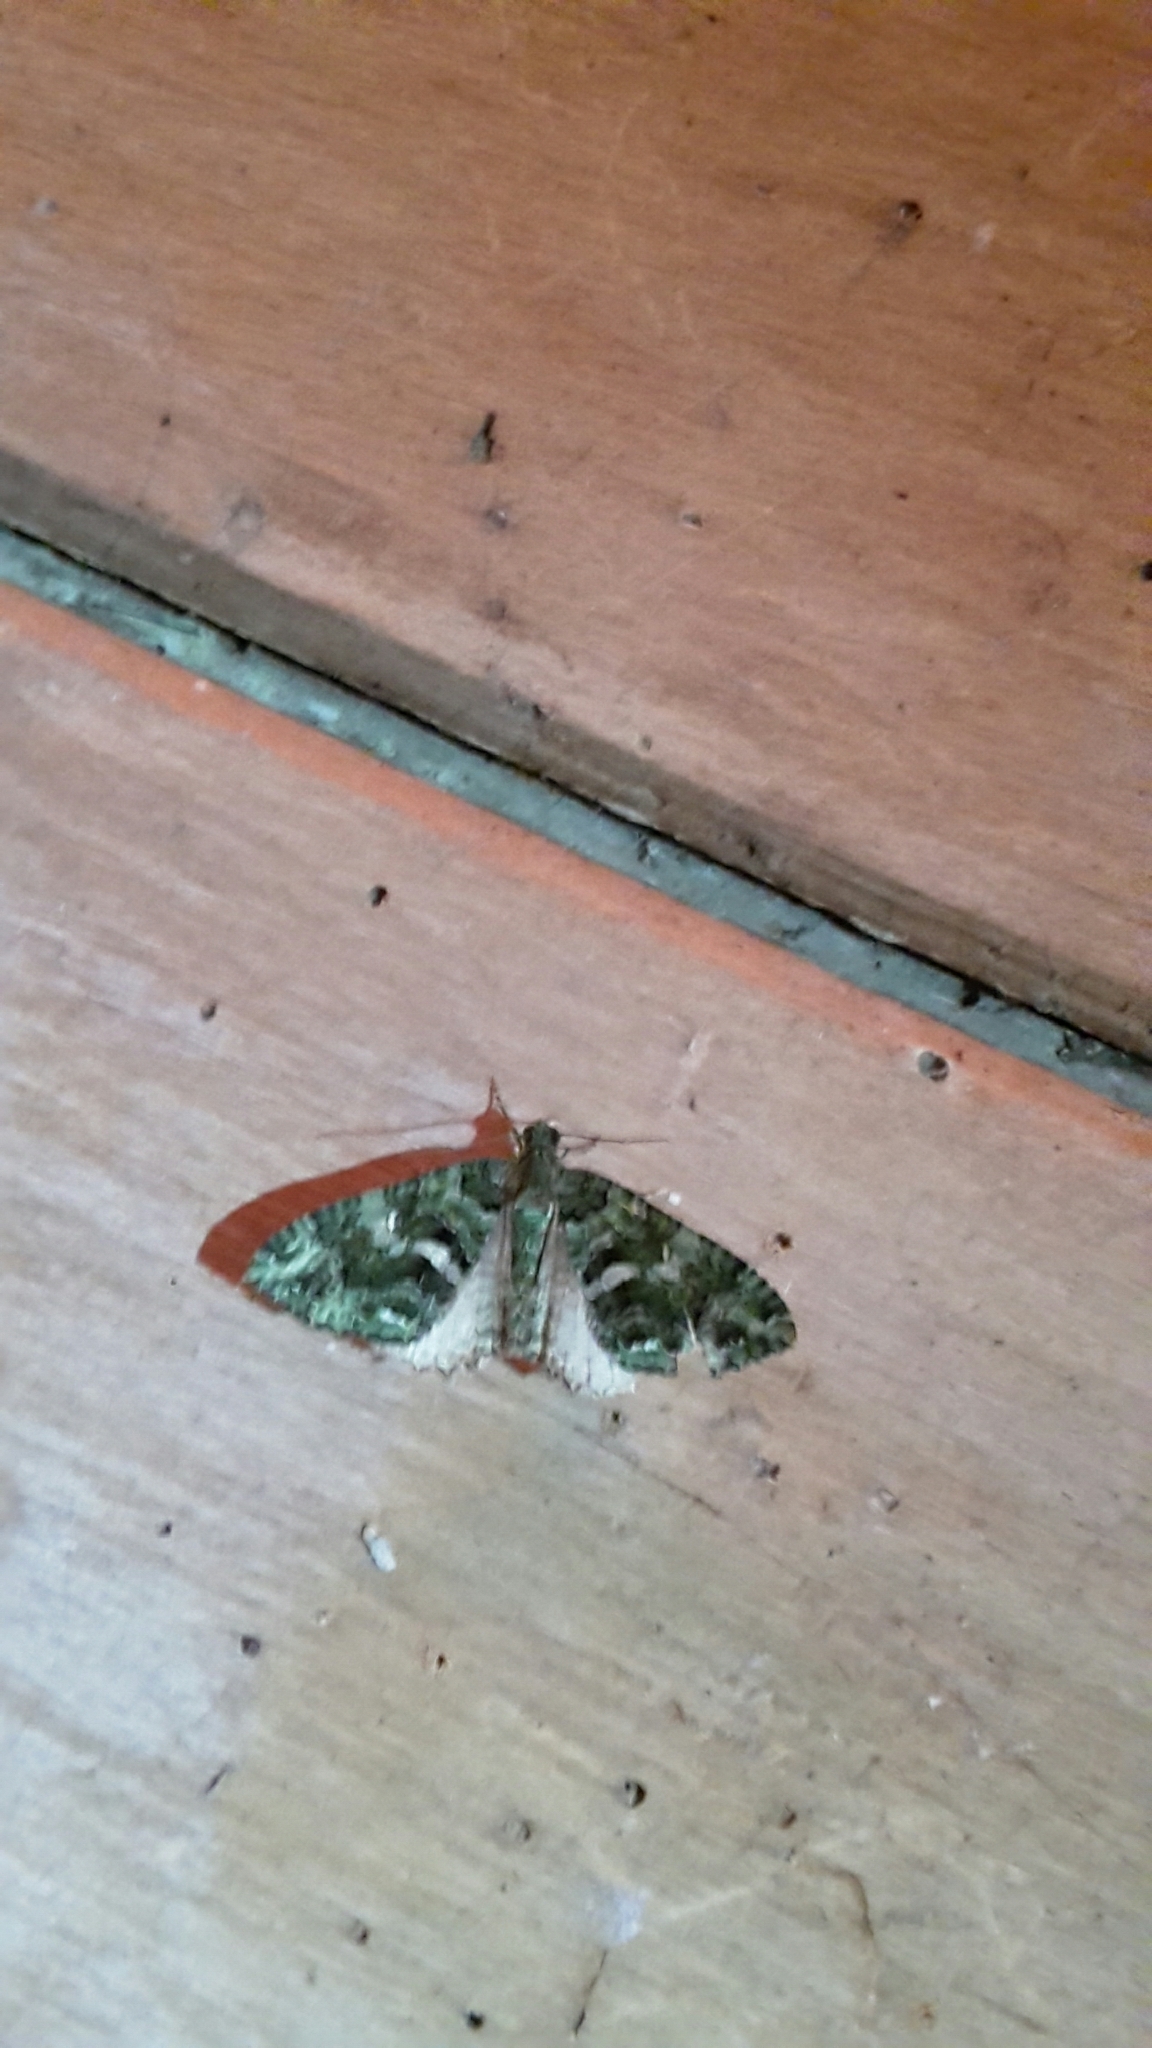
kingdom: Animalia
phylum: Arthropoda
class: Insecta
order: Lepidoptera
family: Geometridae
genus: Austrocidaria
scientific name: Austrocidaria similata
